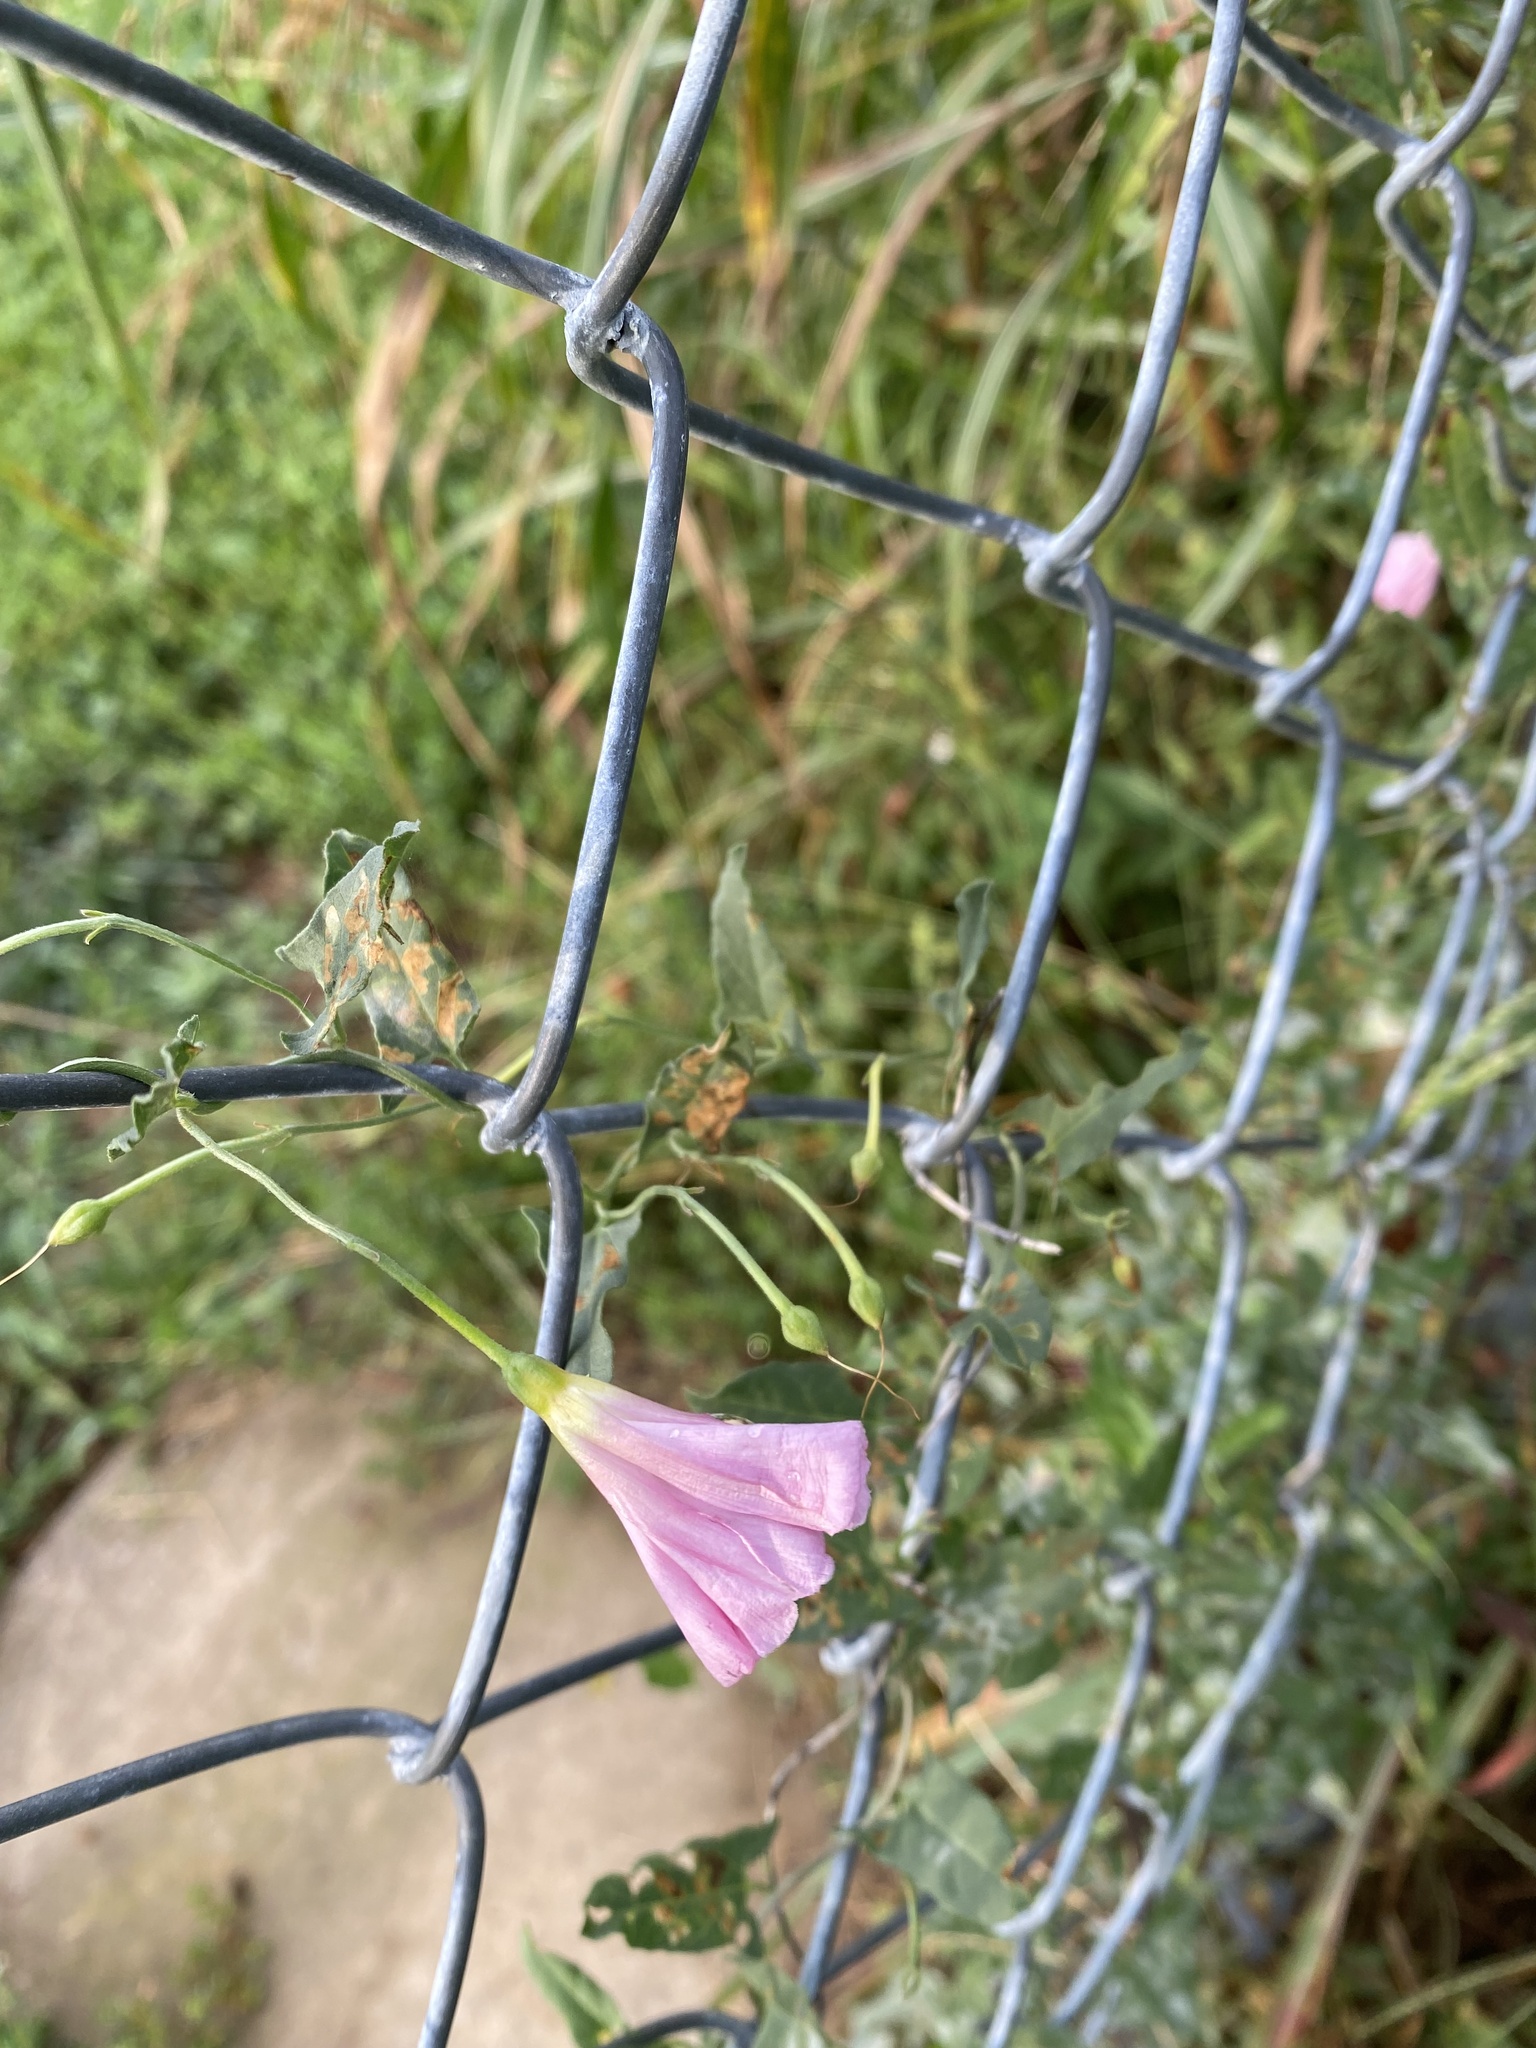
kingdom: Plantae
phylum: Tracheophyta
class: Magnoliopsida
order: Solanales
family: Convolvulaceae
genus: Convolvulus
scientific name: Convolvulus arvensis
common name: Field bindweed
